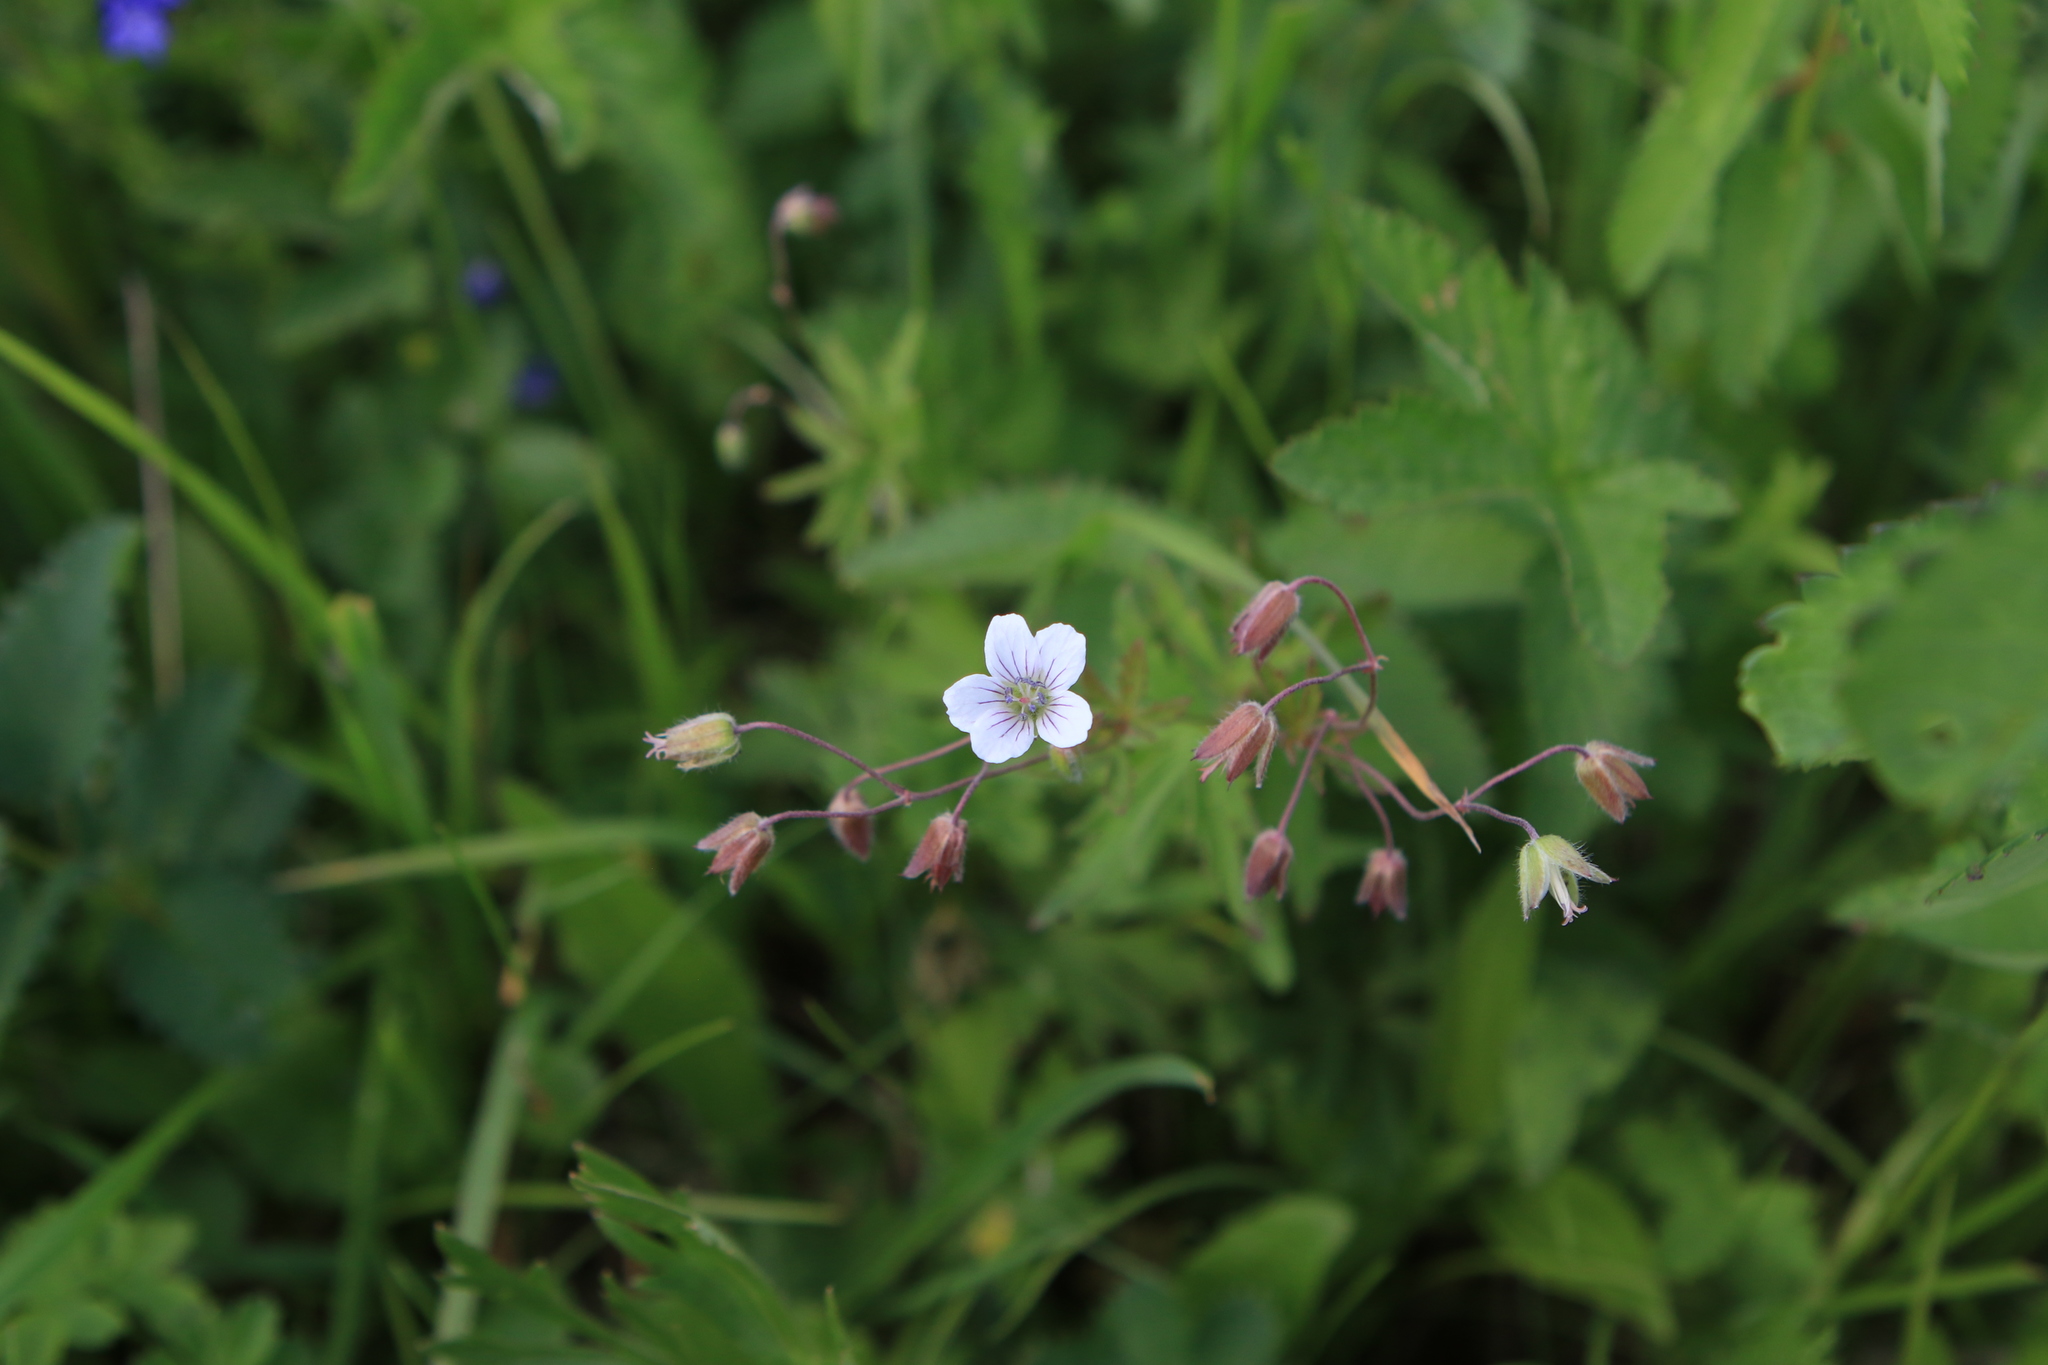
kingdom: Plantae
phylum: Tracheophyta
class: Magnoliopsida
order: Geraniales
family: Geraniaceae
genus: Geranium
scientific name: Geranium pseudosibiricum
